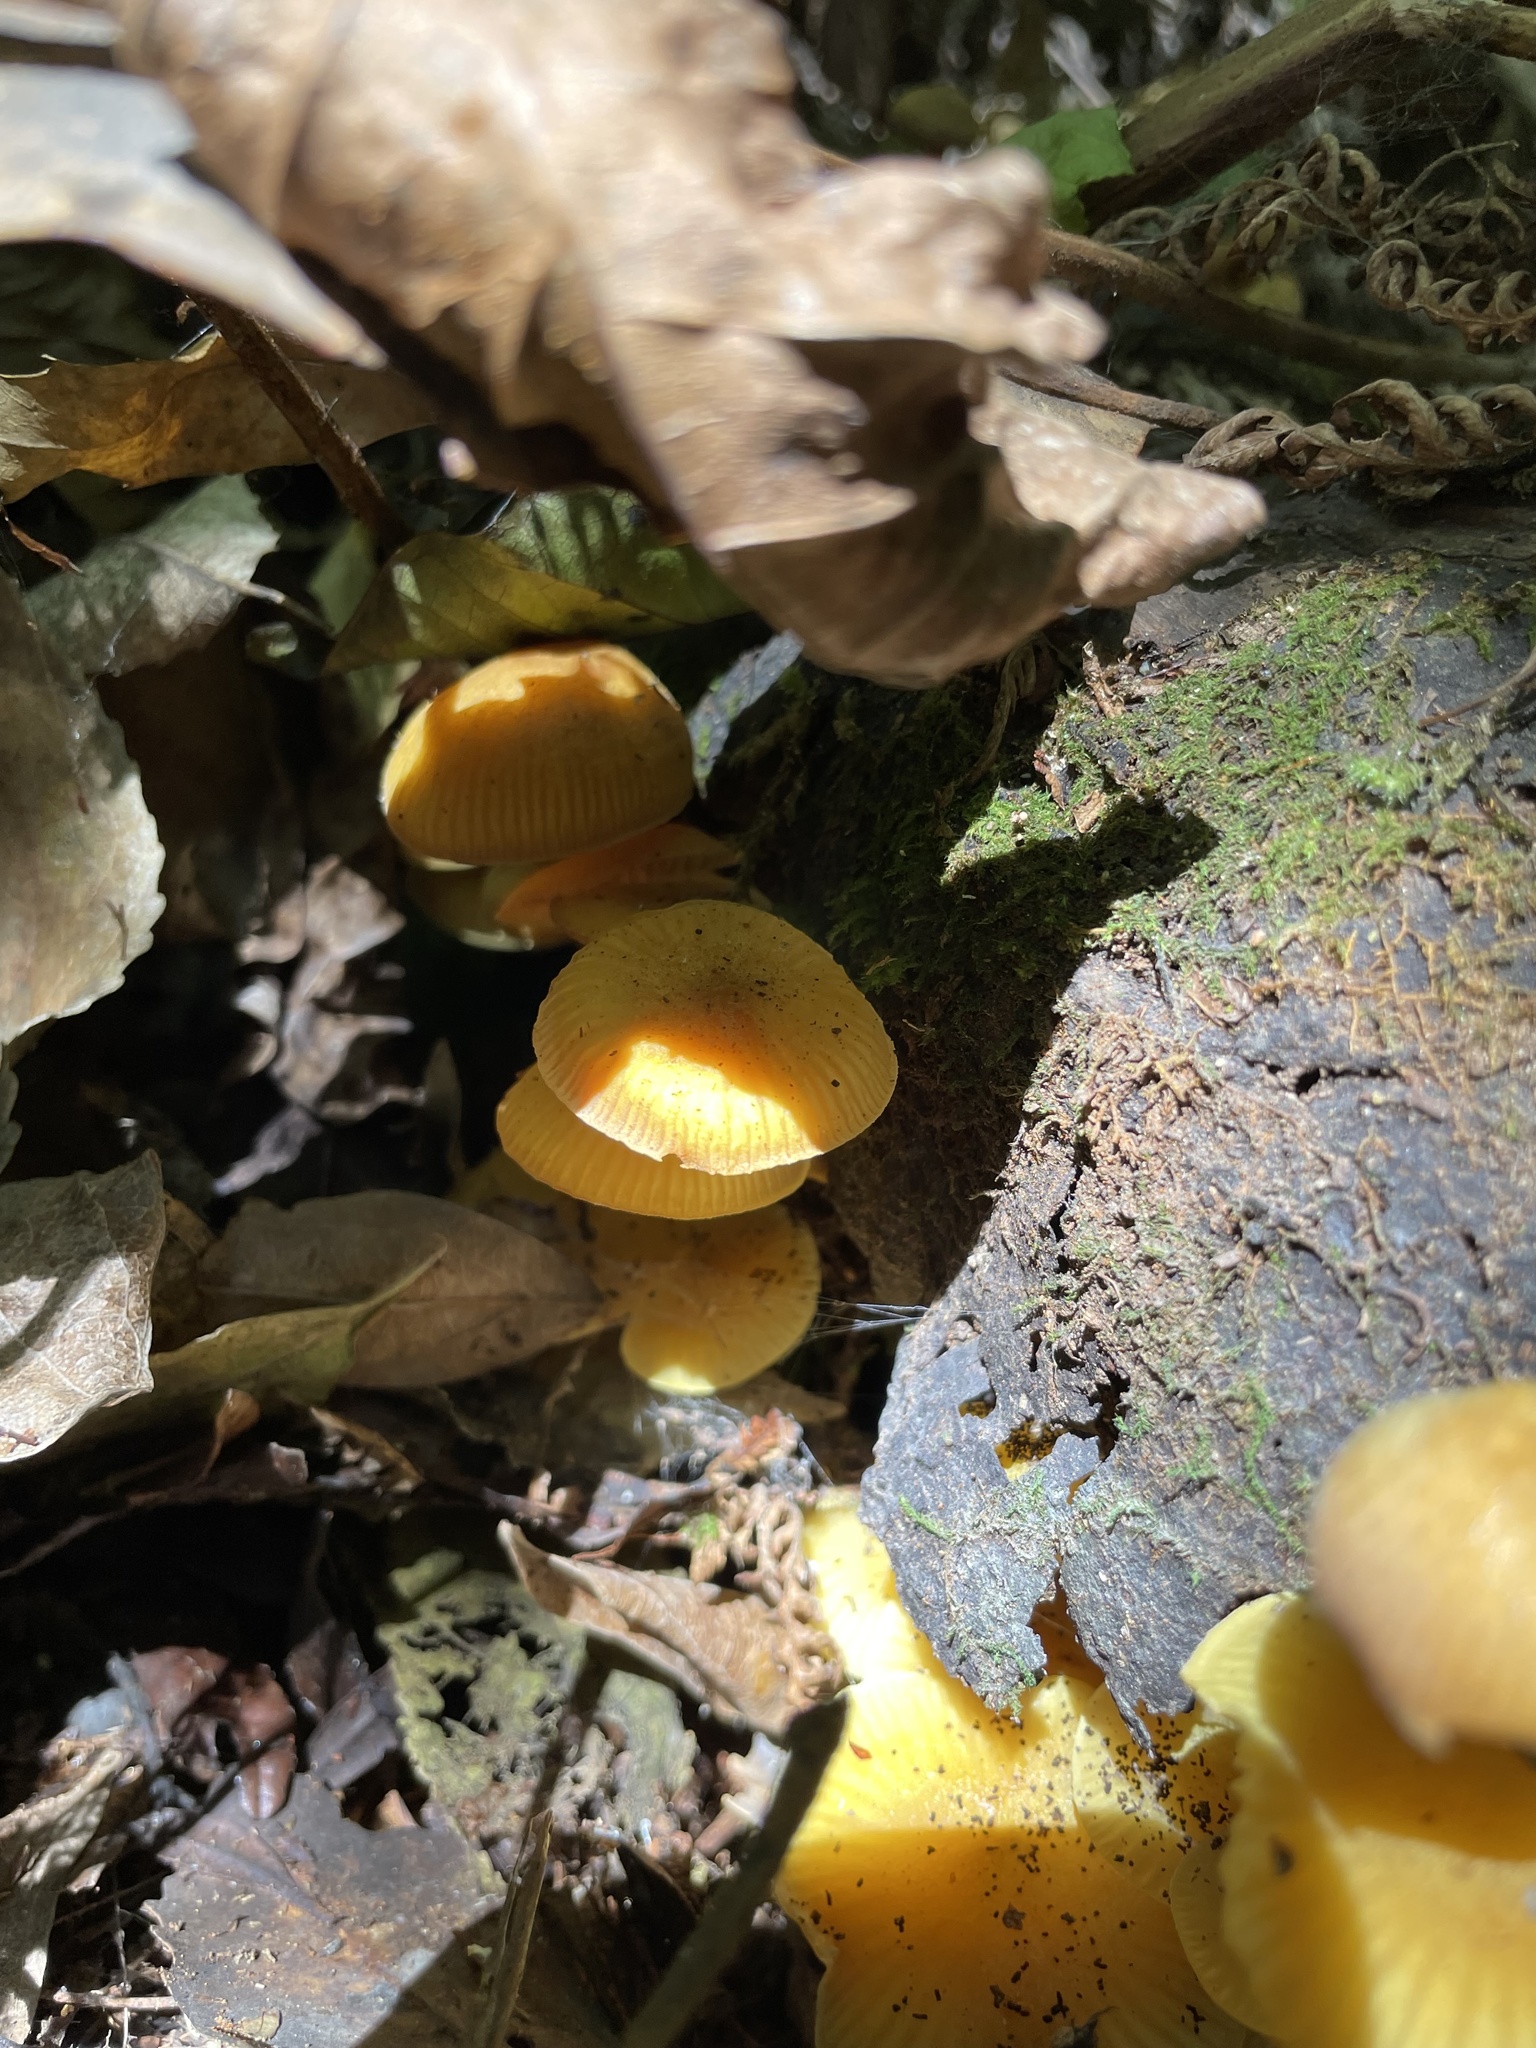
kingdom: Fungi
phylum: Basidiomycota
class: Agaricomycetes
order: Agaricales
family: Mycenaceae
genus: Heimiomyces
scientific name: Heimiomyces velutipes
